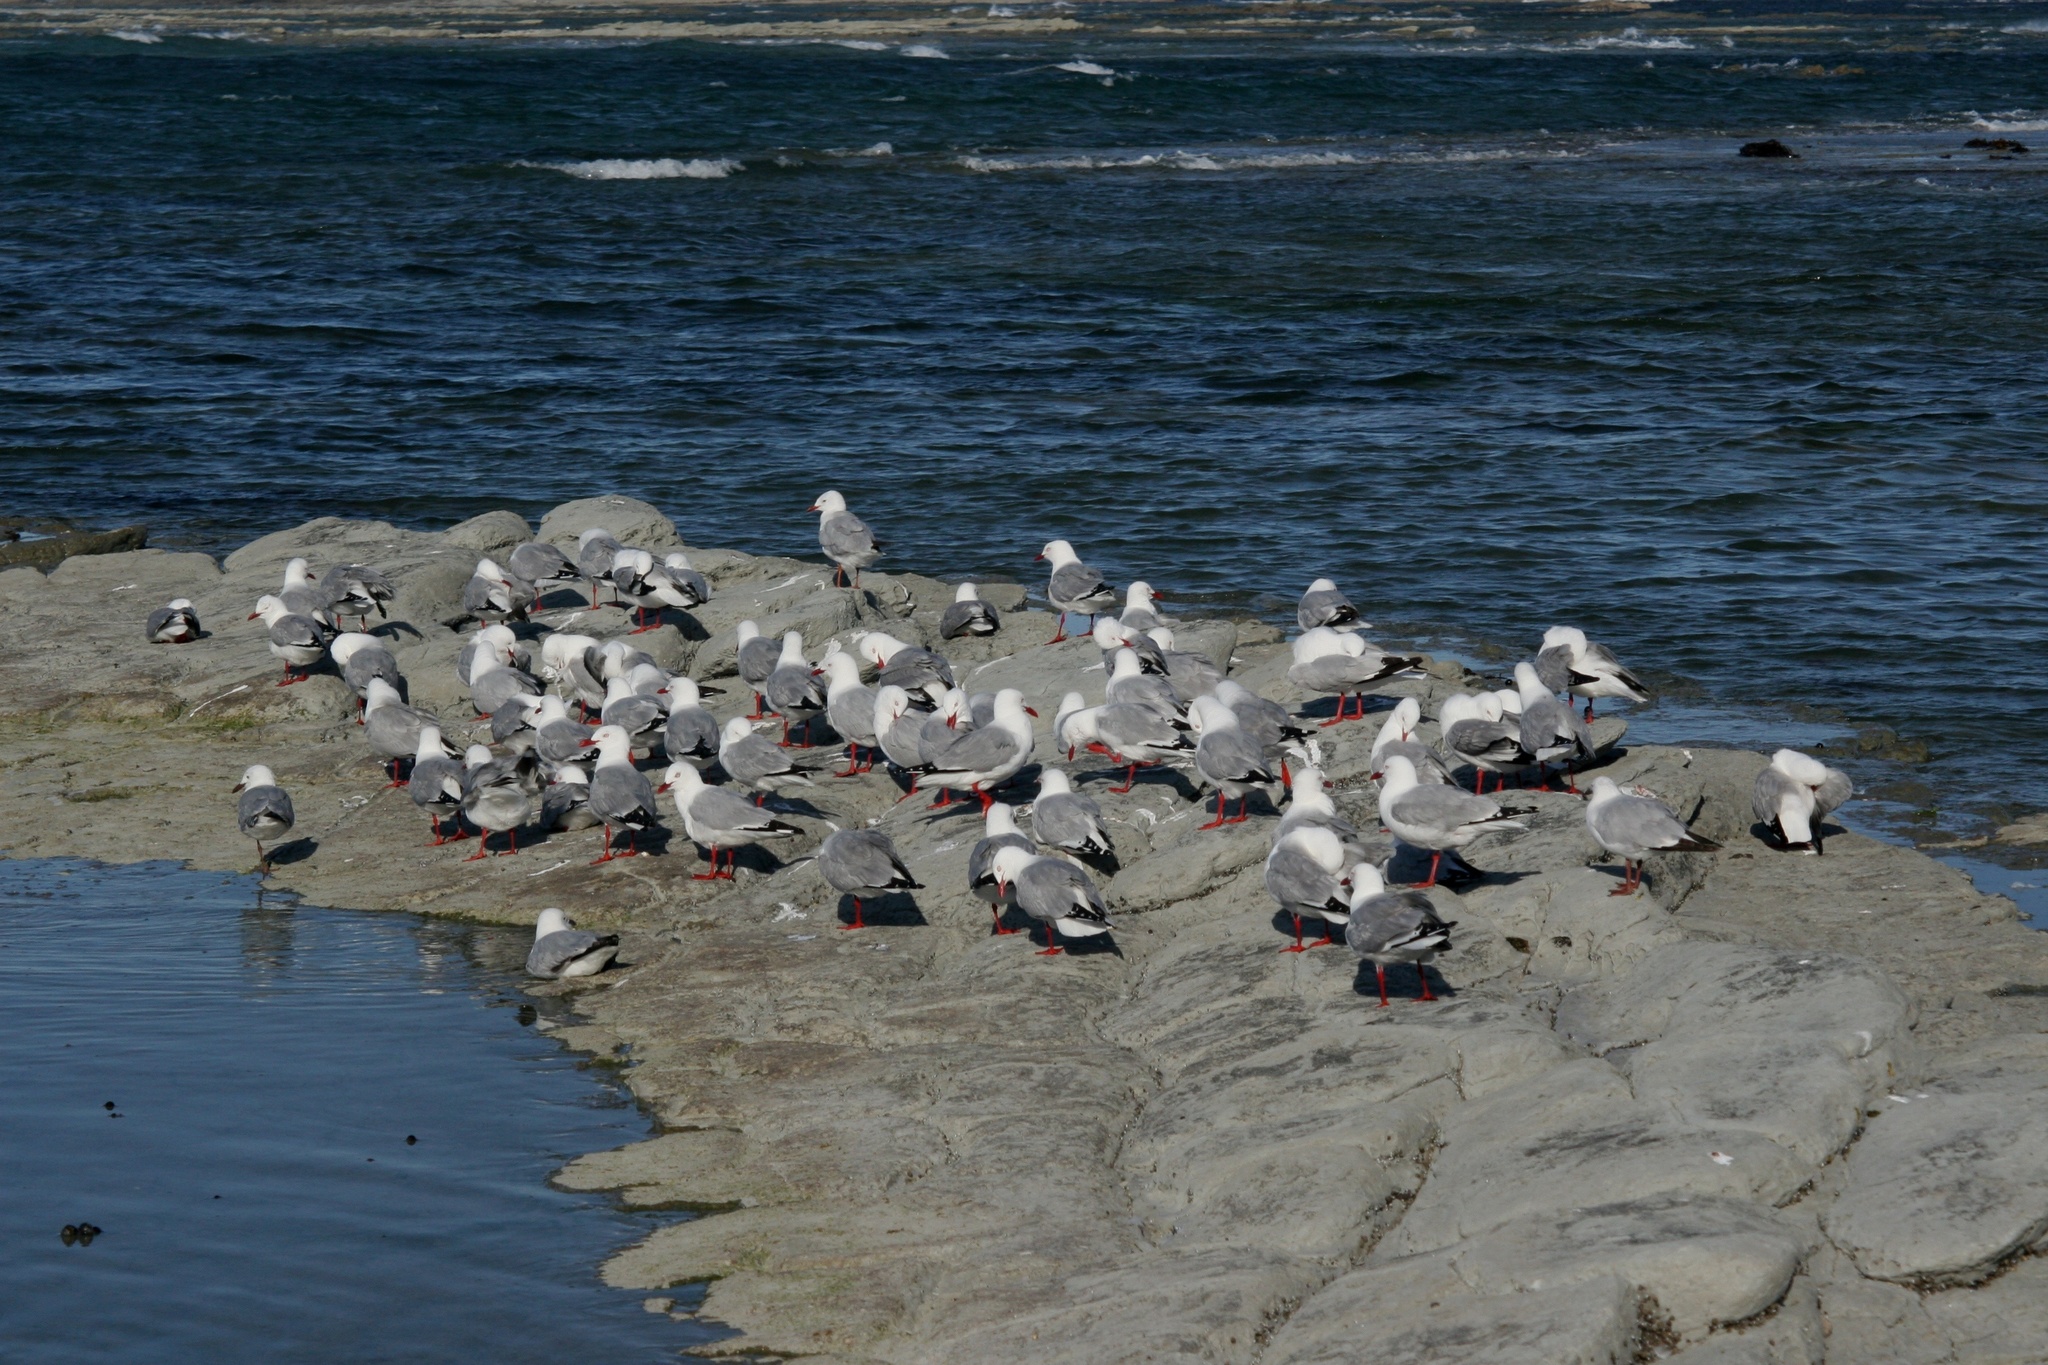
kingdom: Animalia
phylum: Chordata
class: Aves
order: Charadriiformes
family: Laridae
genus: Chroicocephalus
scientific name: Chroicocephalus novaehollandiae
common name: Silver gull
